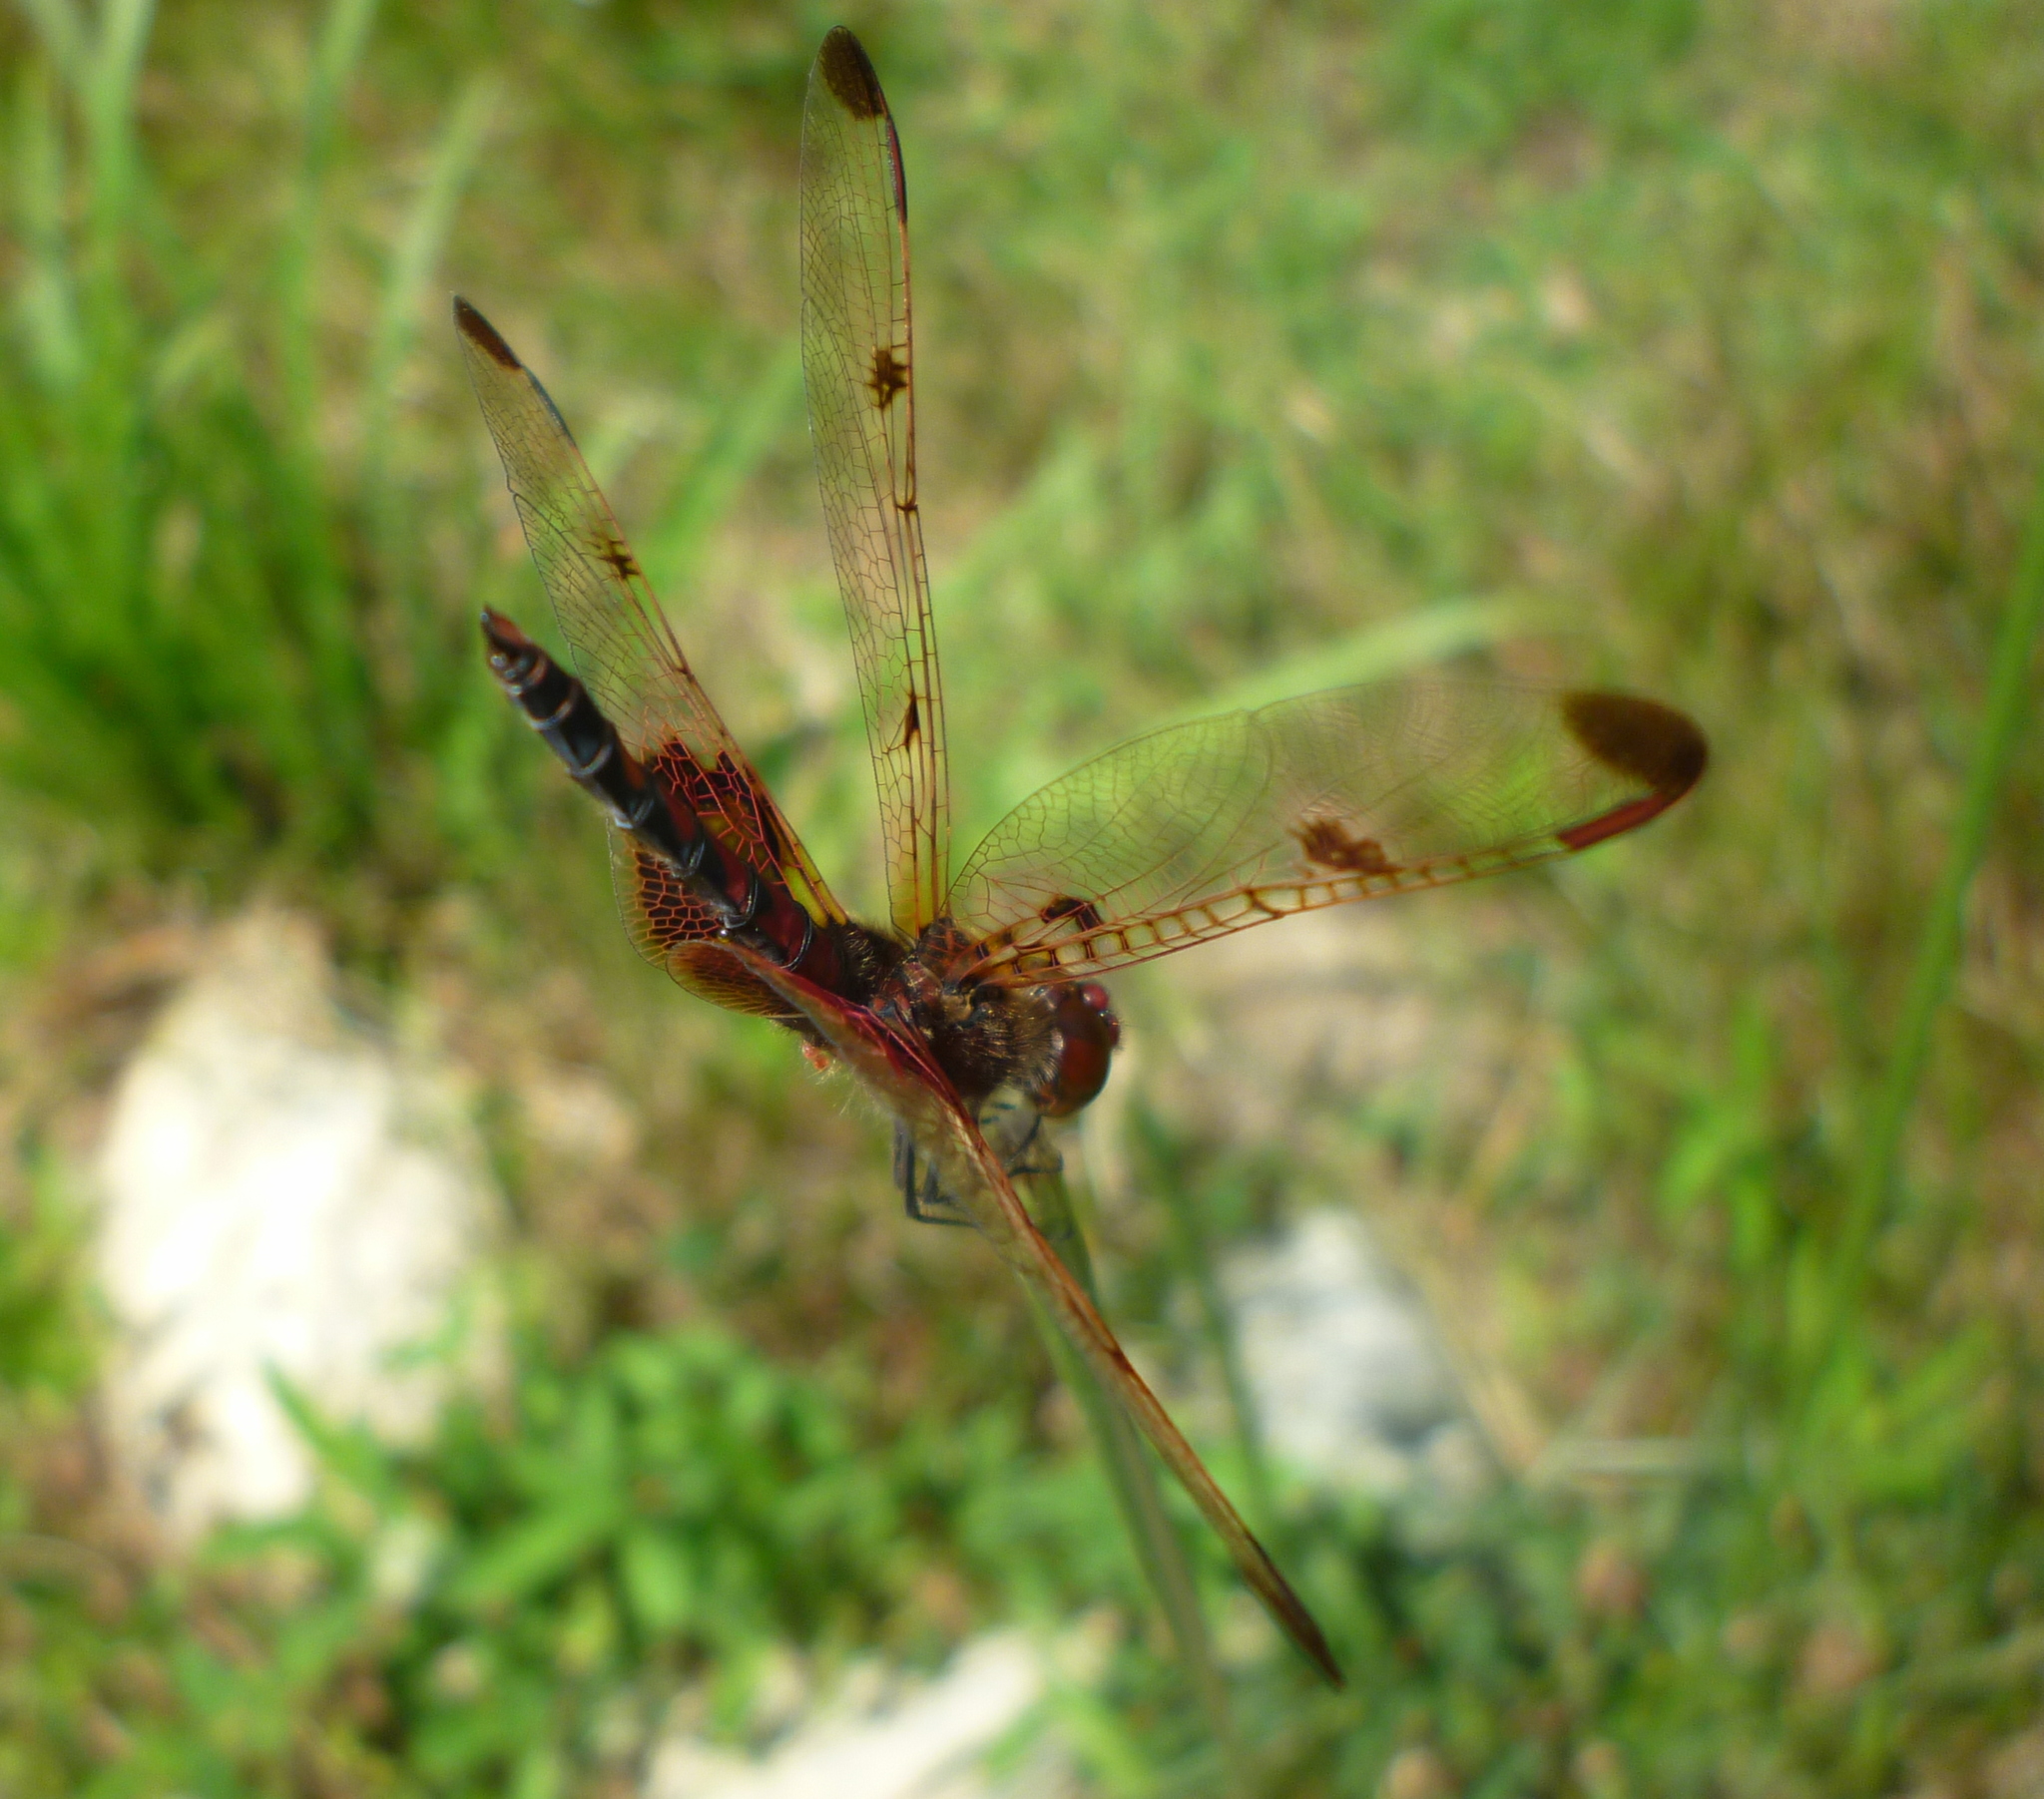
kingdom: Animalia
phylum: Arthropoda
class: Insecta
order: Odonata
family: Libellulidae
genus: Celithemis
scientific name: Celithemis elisa
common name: Calico pennant
